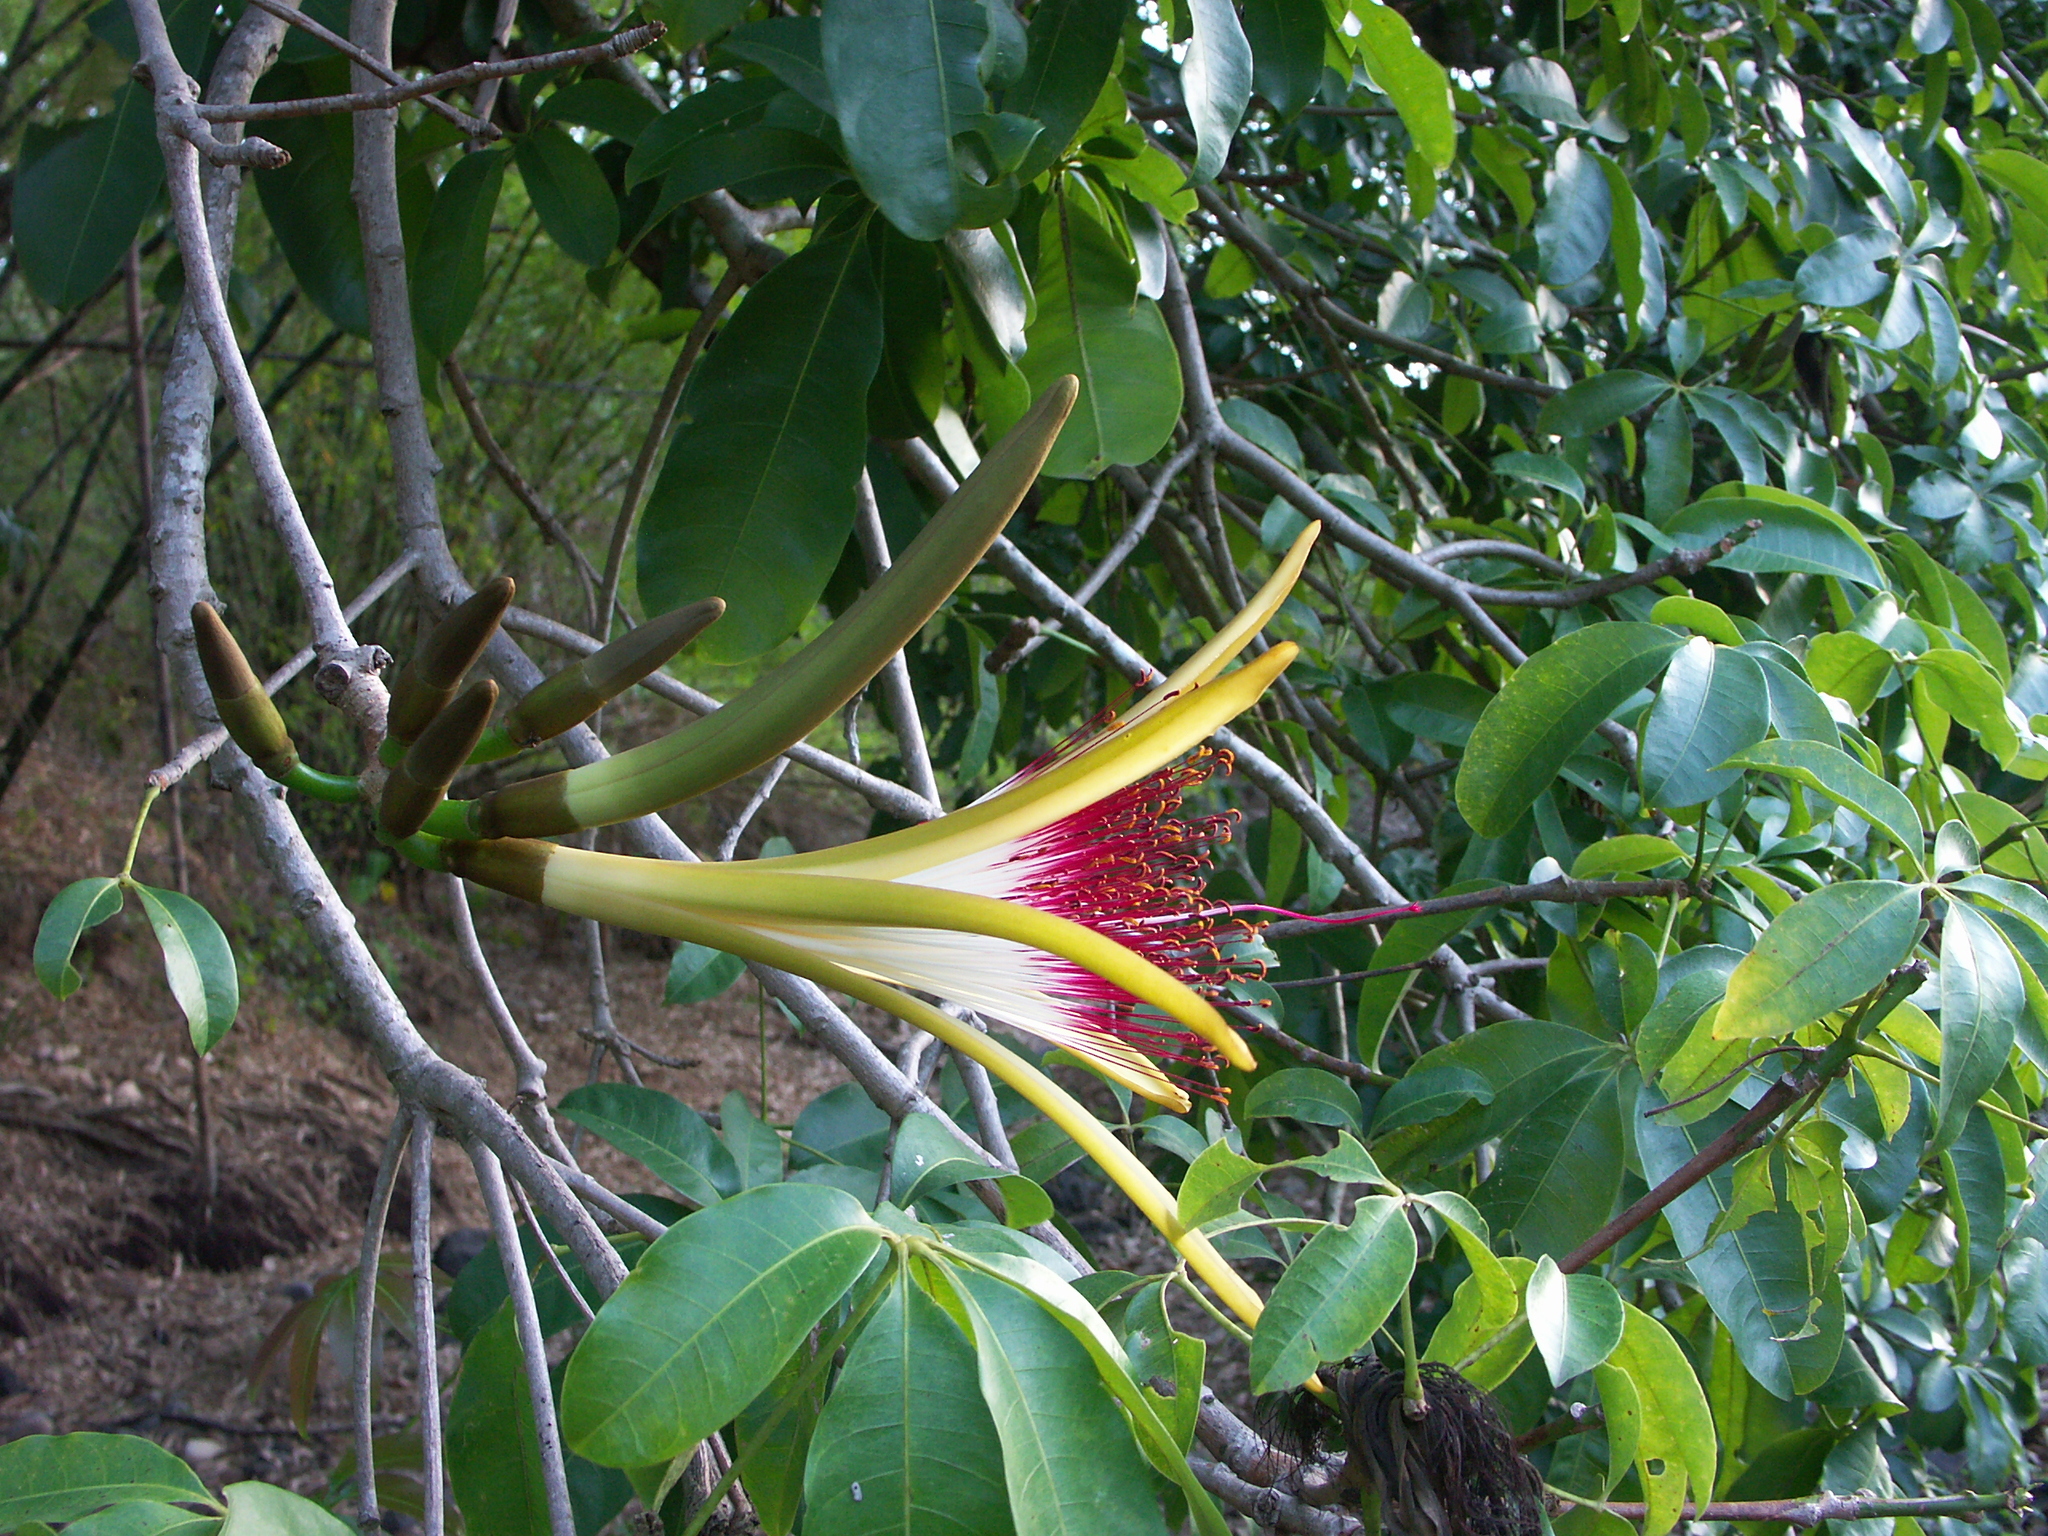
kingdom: Plantae
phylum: Tracheophyta
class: Magnoliopsida
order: Malvales
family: Malvaceae
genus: Pachira
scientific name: Pachira aquatica
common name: Provision-tree
